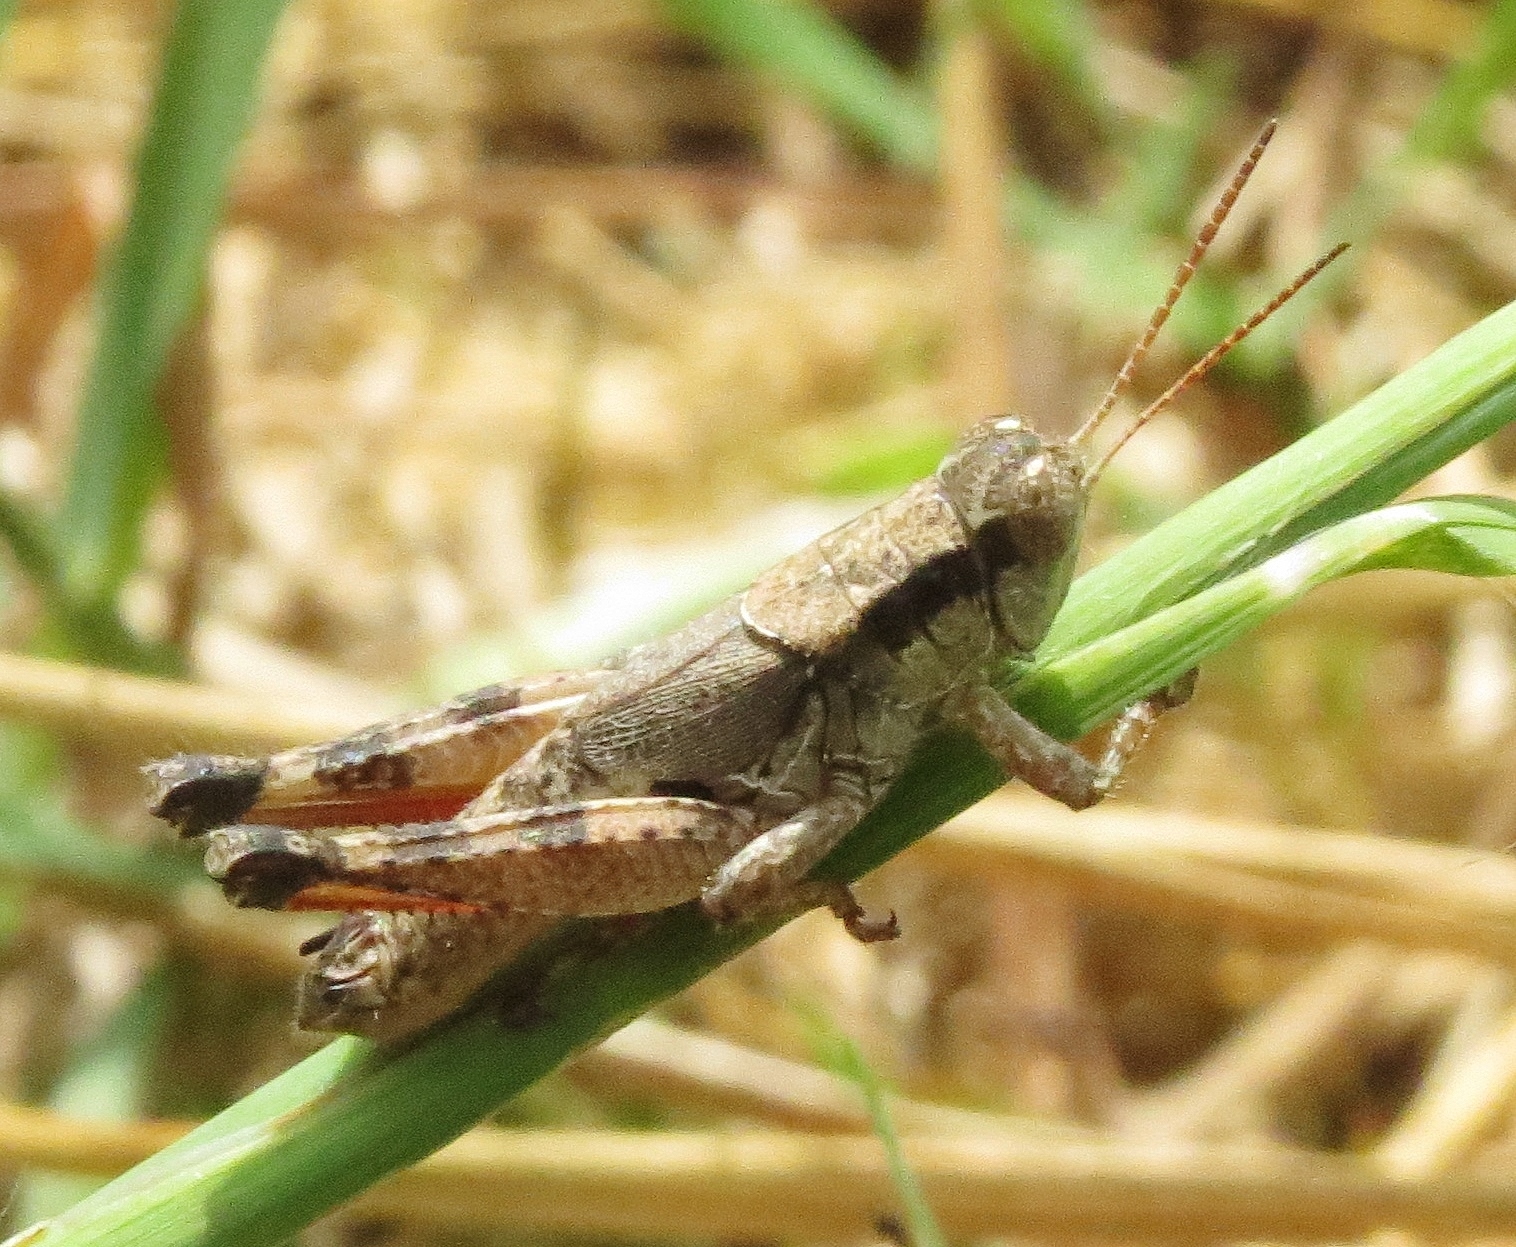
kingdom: Animalia
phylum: Arthropoda
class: Insecta
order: Orthoptera
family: Acrididae
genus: Melanoplus
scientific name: Melanoplus scudderi
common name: Scudder's short-winged locust
